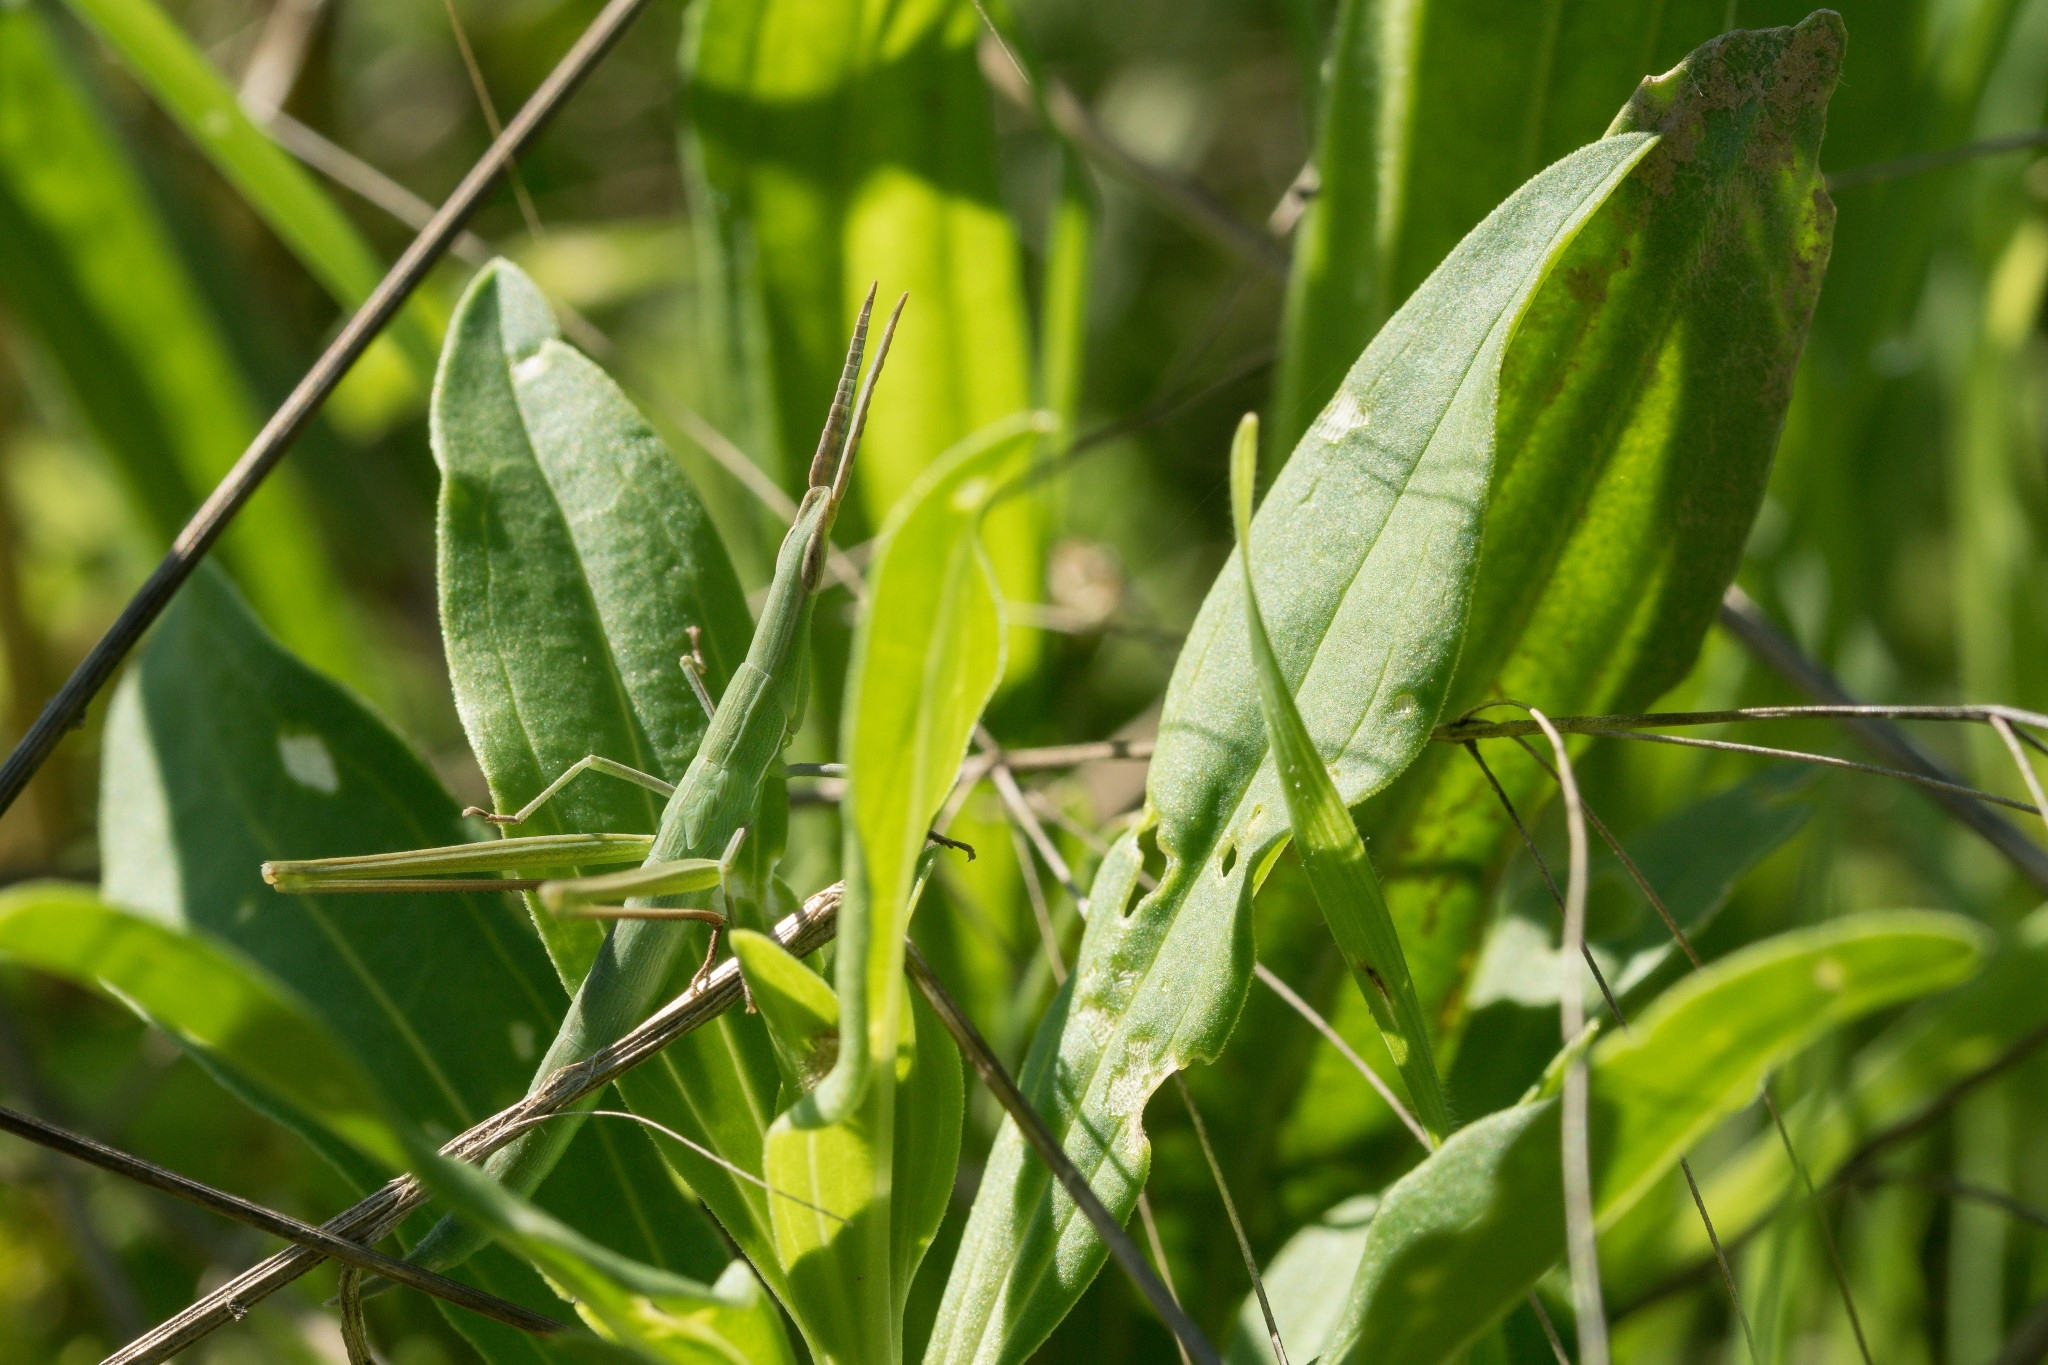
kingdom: Animalia
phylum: Arthropoda
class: Insecta
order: Orthoptera
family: Acrididae
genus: Acrida
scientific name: Acrida ungarica
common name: Common cone-headed grasshopper
